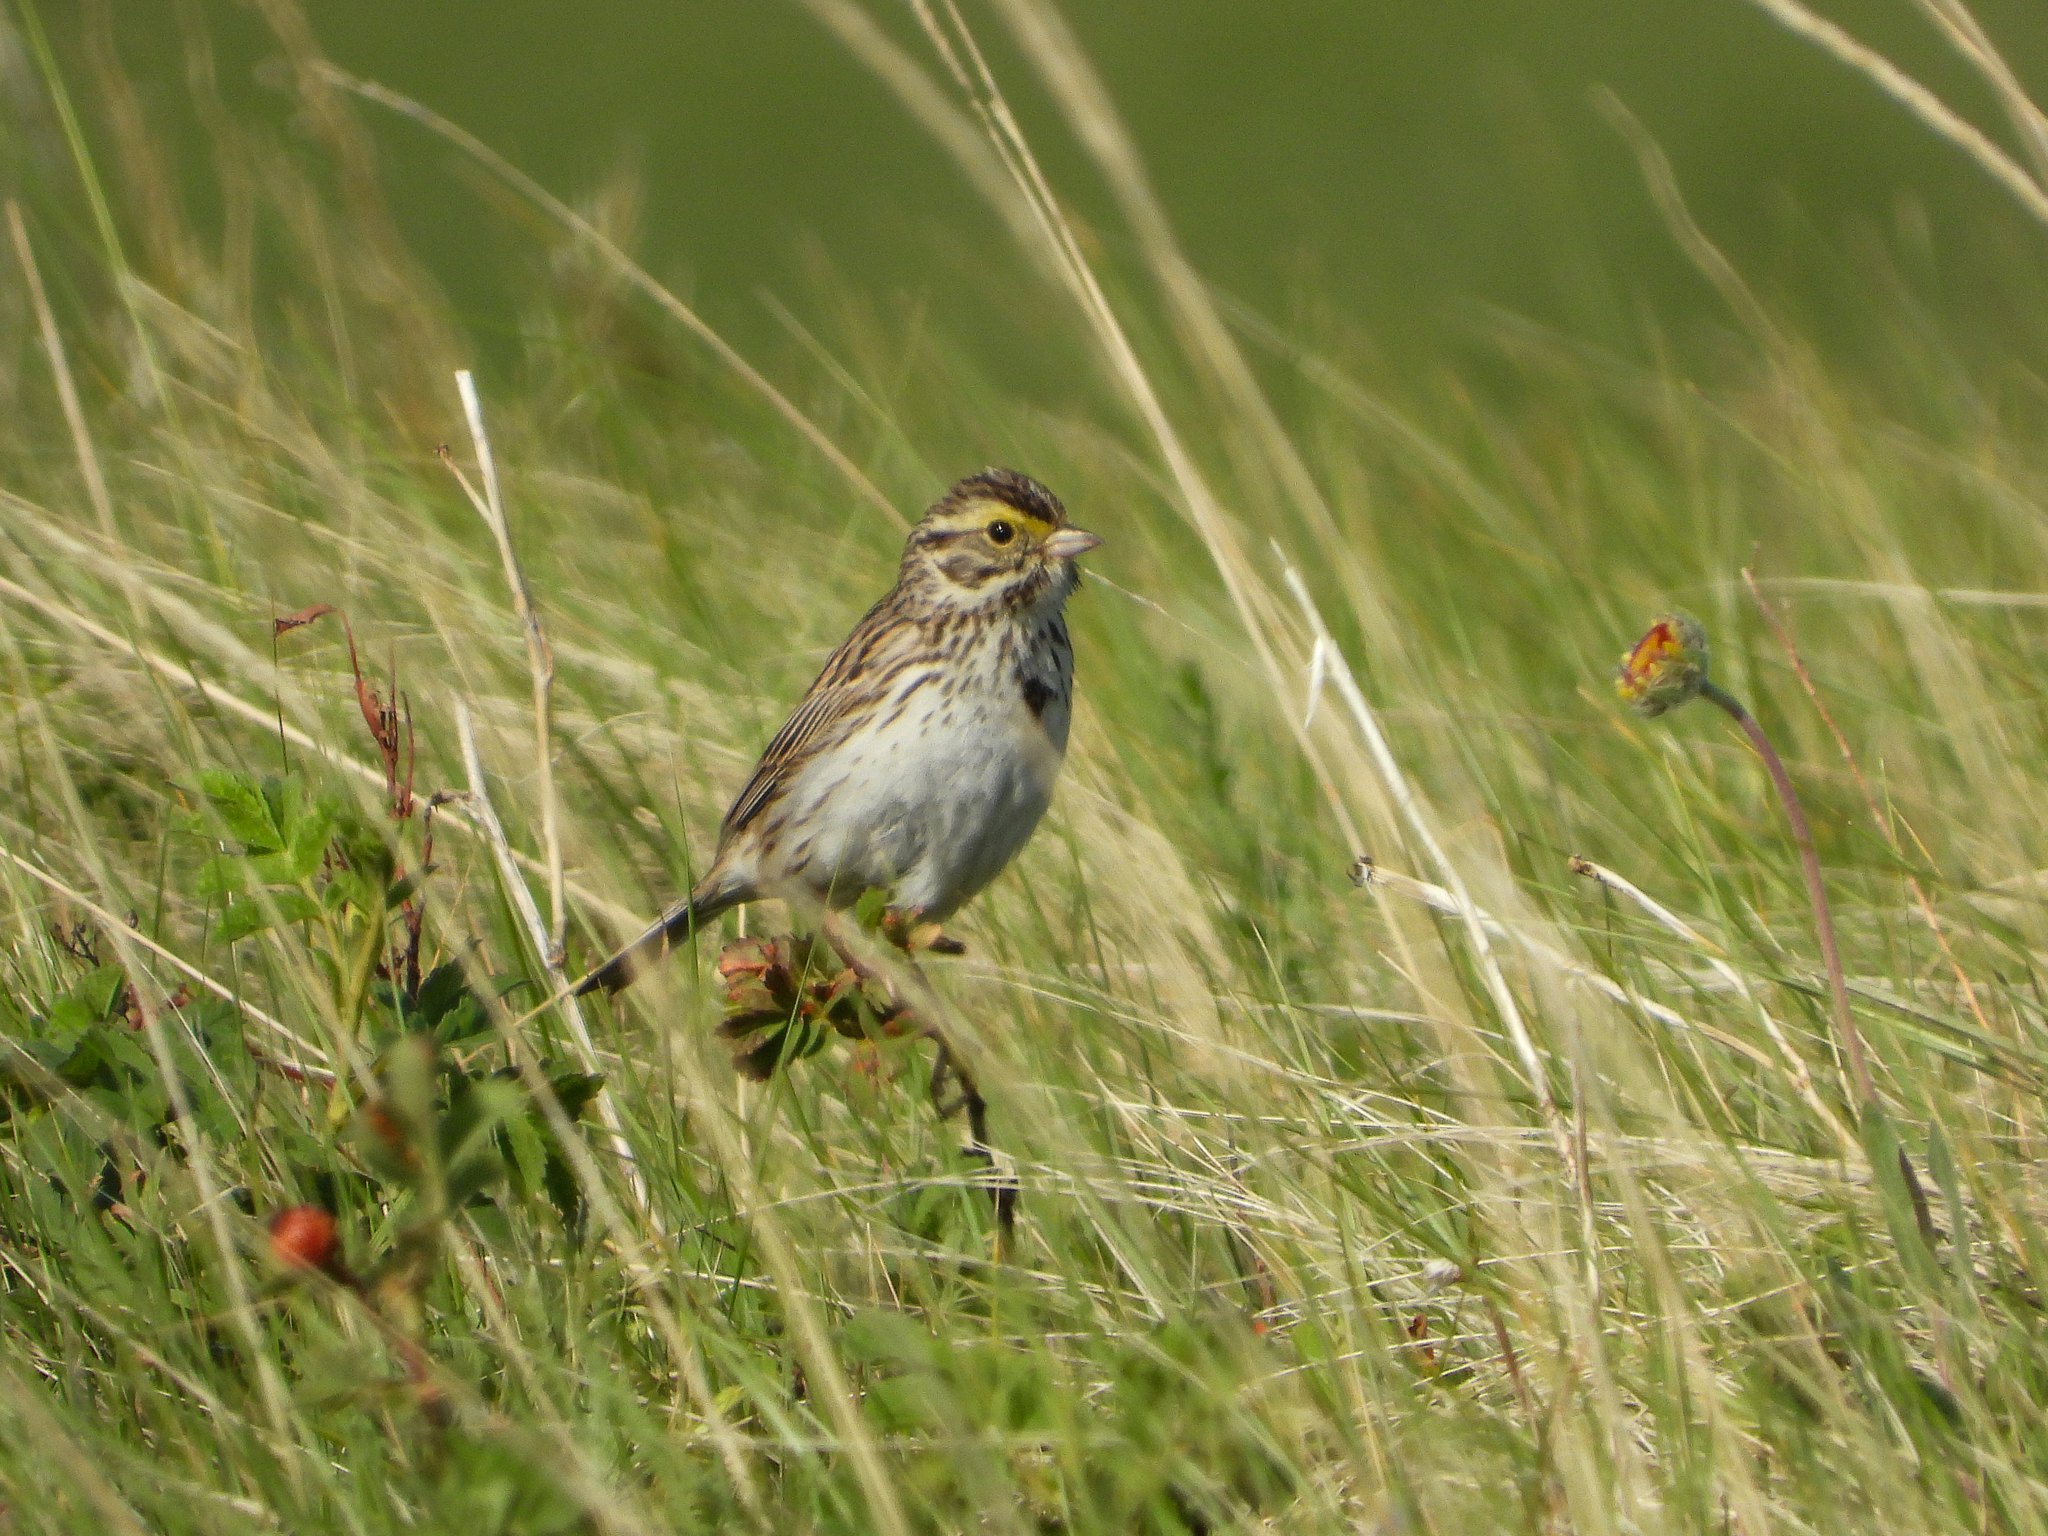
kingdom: Animalia
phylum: Chordata
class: Aves
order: Passeriformes
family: Passerellidae
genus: Passerculus
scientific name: Passerculus sandwichensis
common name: Savannah sparrow
